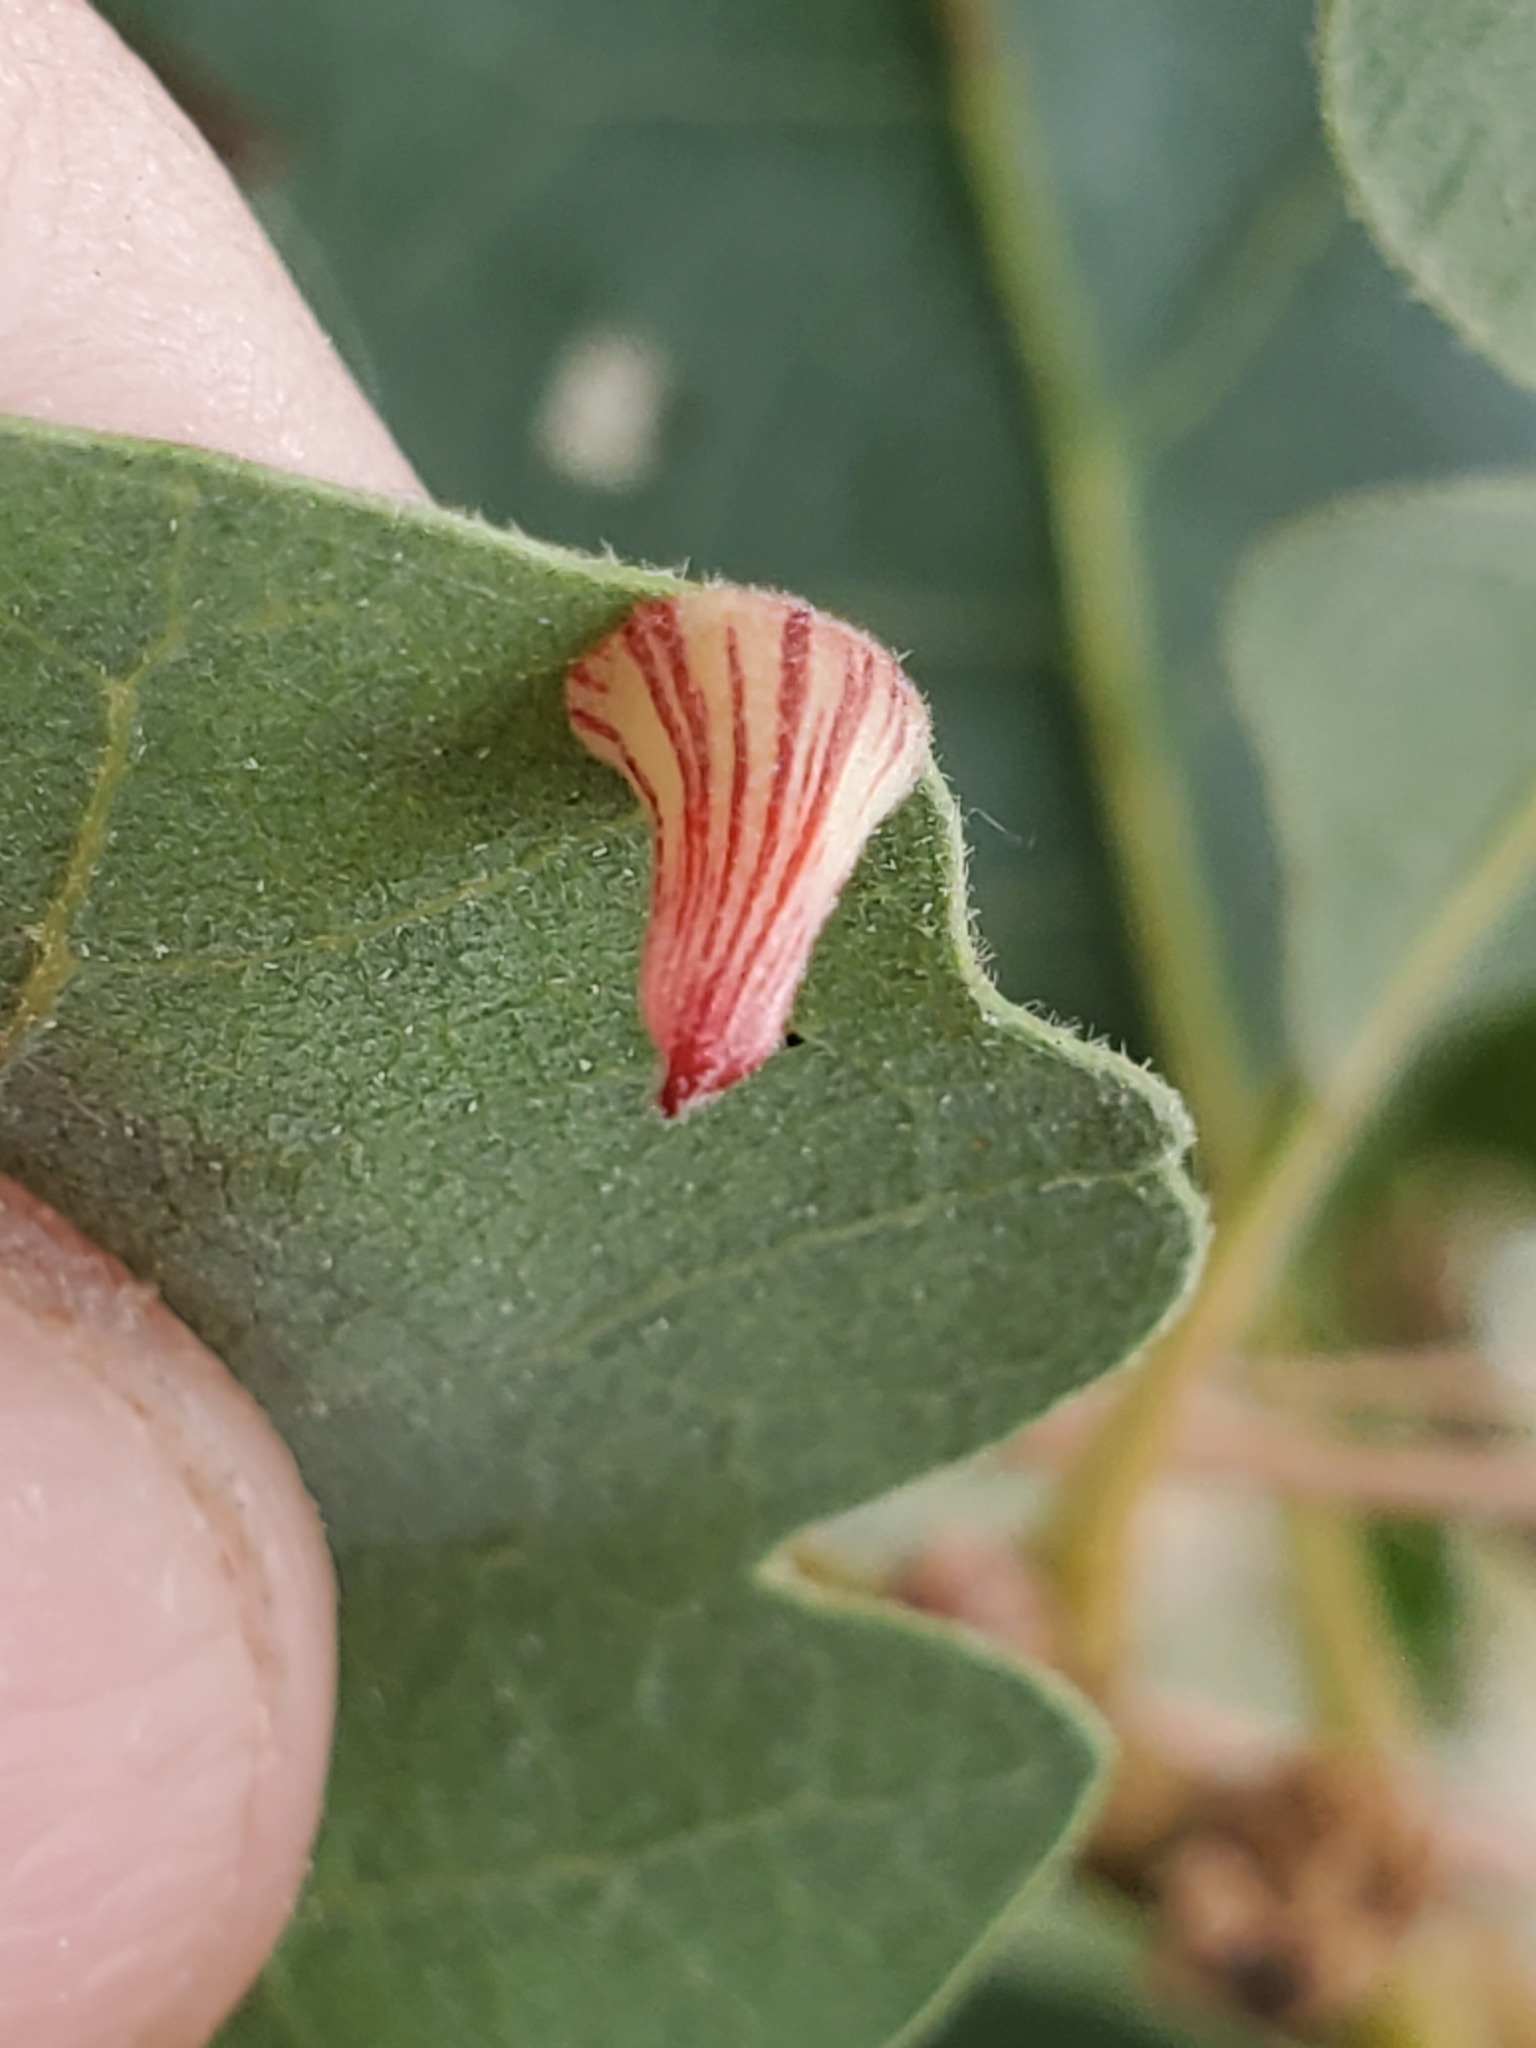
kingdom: Animalia
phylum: Arthropoda
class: Insecta
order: Hymenoptera
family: Cynipidae
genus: Andricus
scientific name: Andricus
